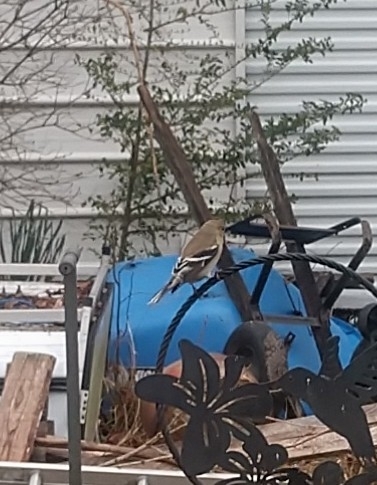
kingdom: Animalia
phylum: Chordata
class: Aves
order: Passeriformes
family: Fringillidae
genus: Spinus
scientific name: Spinus tristis
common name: American goldfinch
